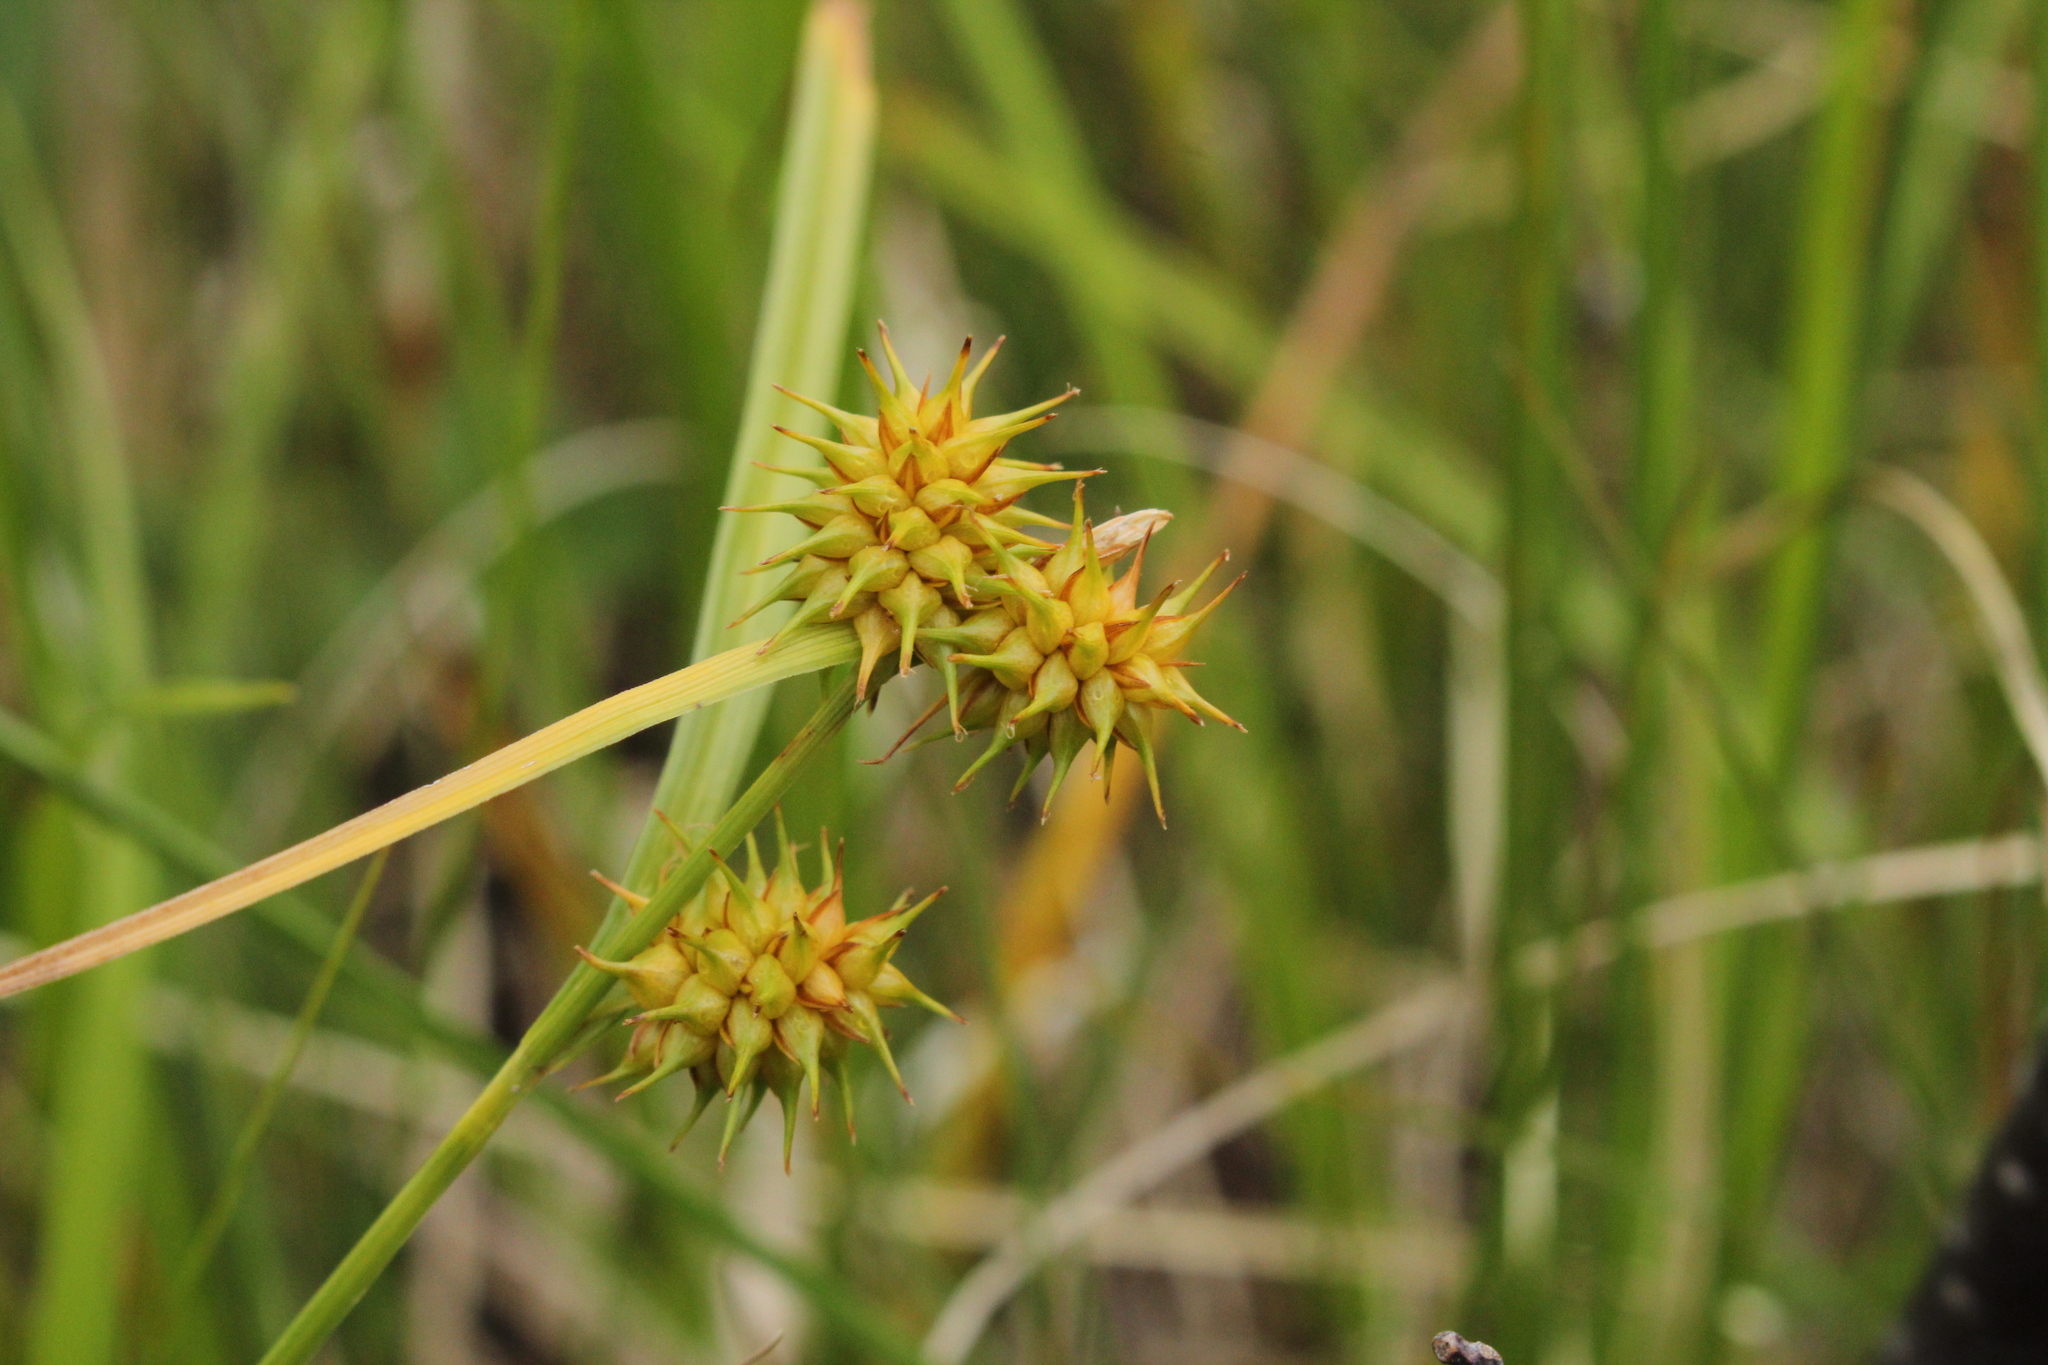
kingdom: Plantae
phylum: Tracheophyta
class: Liliopsida
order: Poales
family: Cyperaceae
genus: Carex
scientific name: Carex flava
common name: Large yellow-sedge
